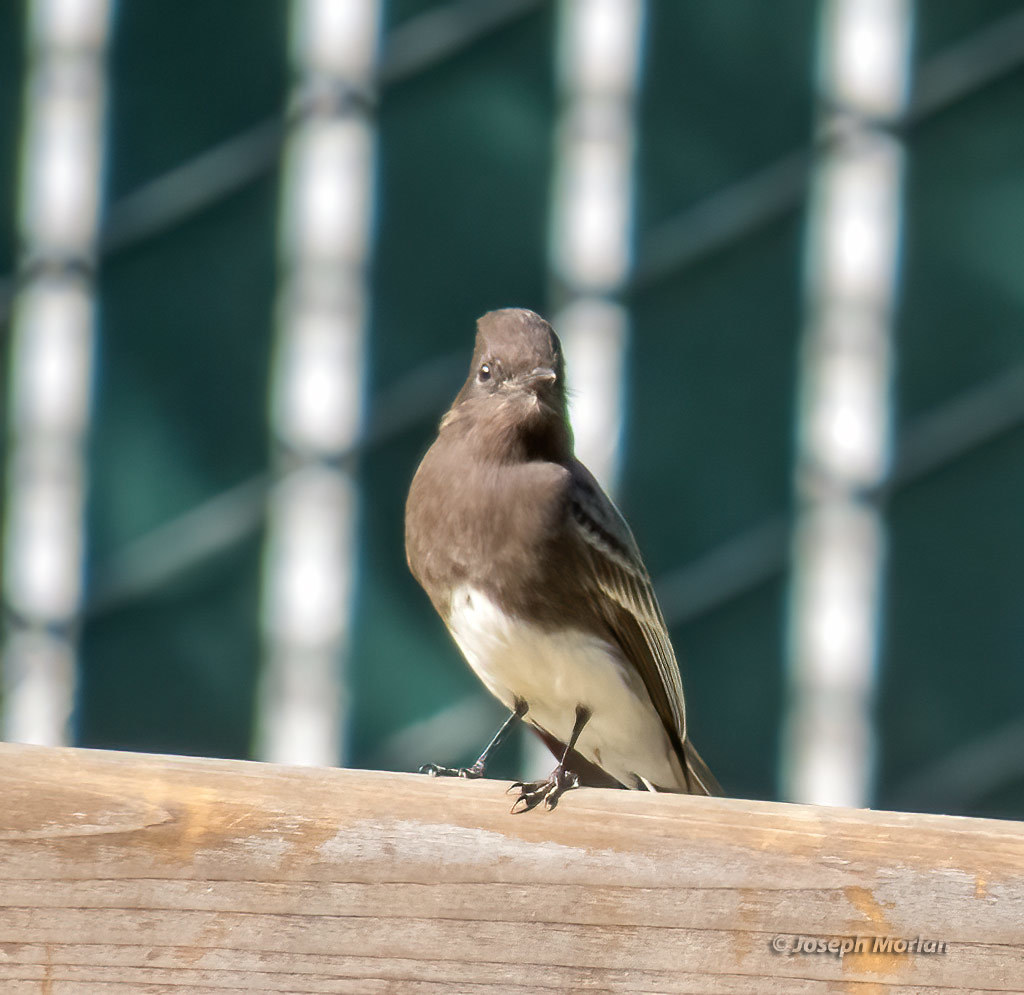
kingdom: Animalia
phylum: Chordata
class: Aves
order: Passeriformes
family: Tyrannidae
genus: Sayornis
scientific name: Sayornis nigricans
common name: Black phoebe
